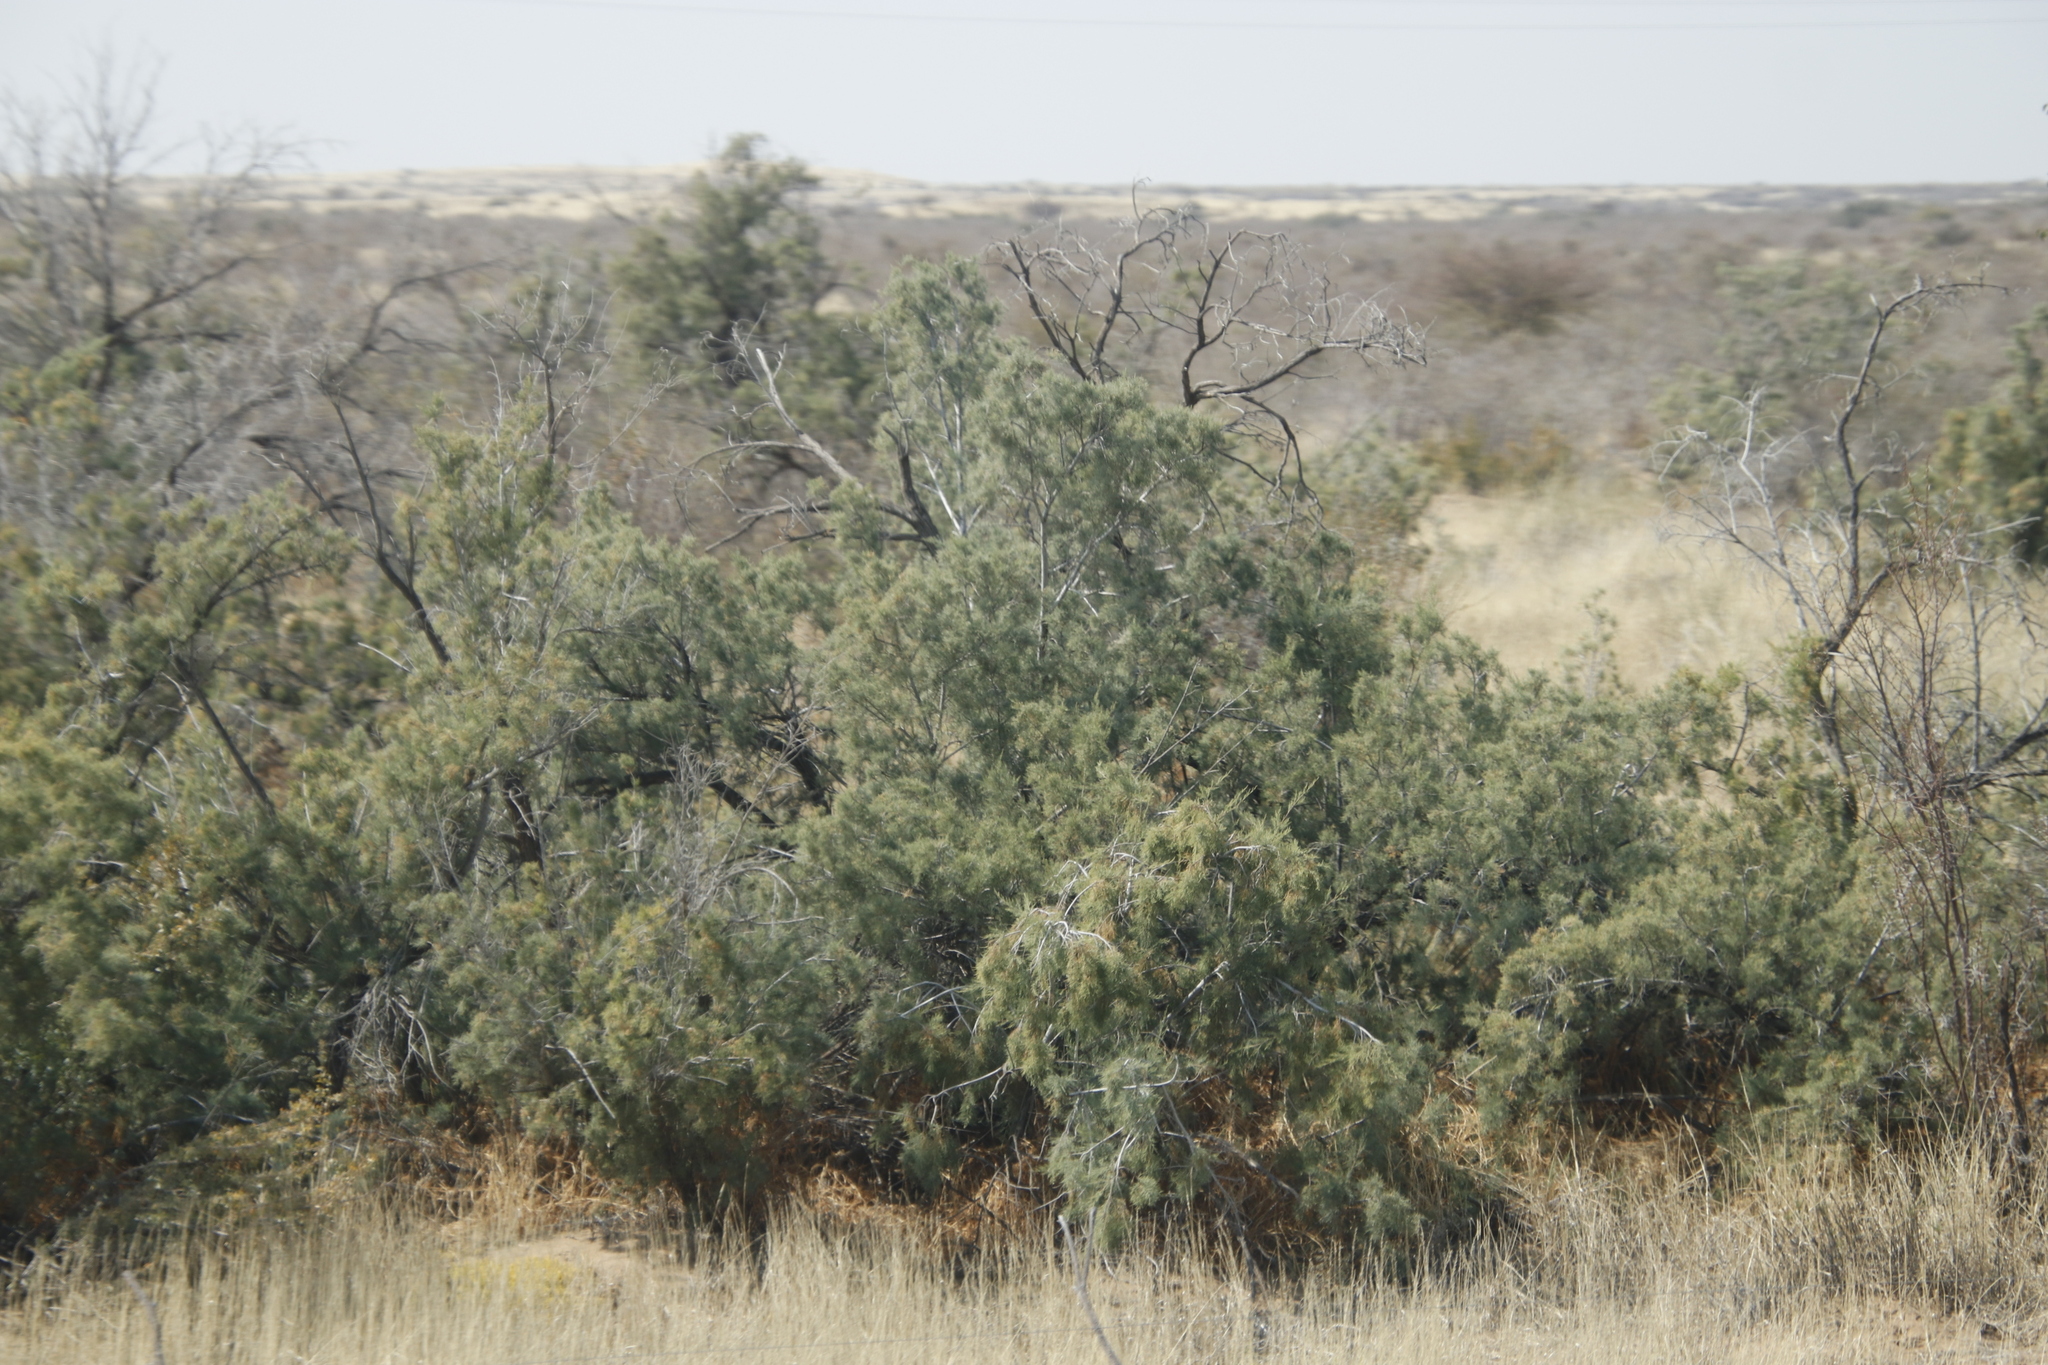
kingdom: Plantae
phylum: Tracheophyta
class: Magnoliopsida
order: Caryophyllales
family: Tamaricaceae
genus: Tamarix
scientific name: Tamarix usneoides
